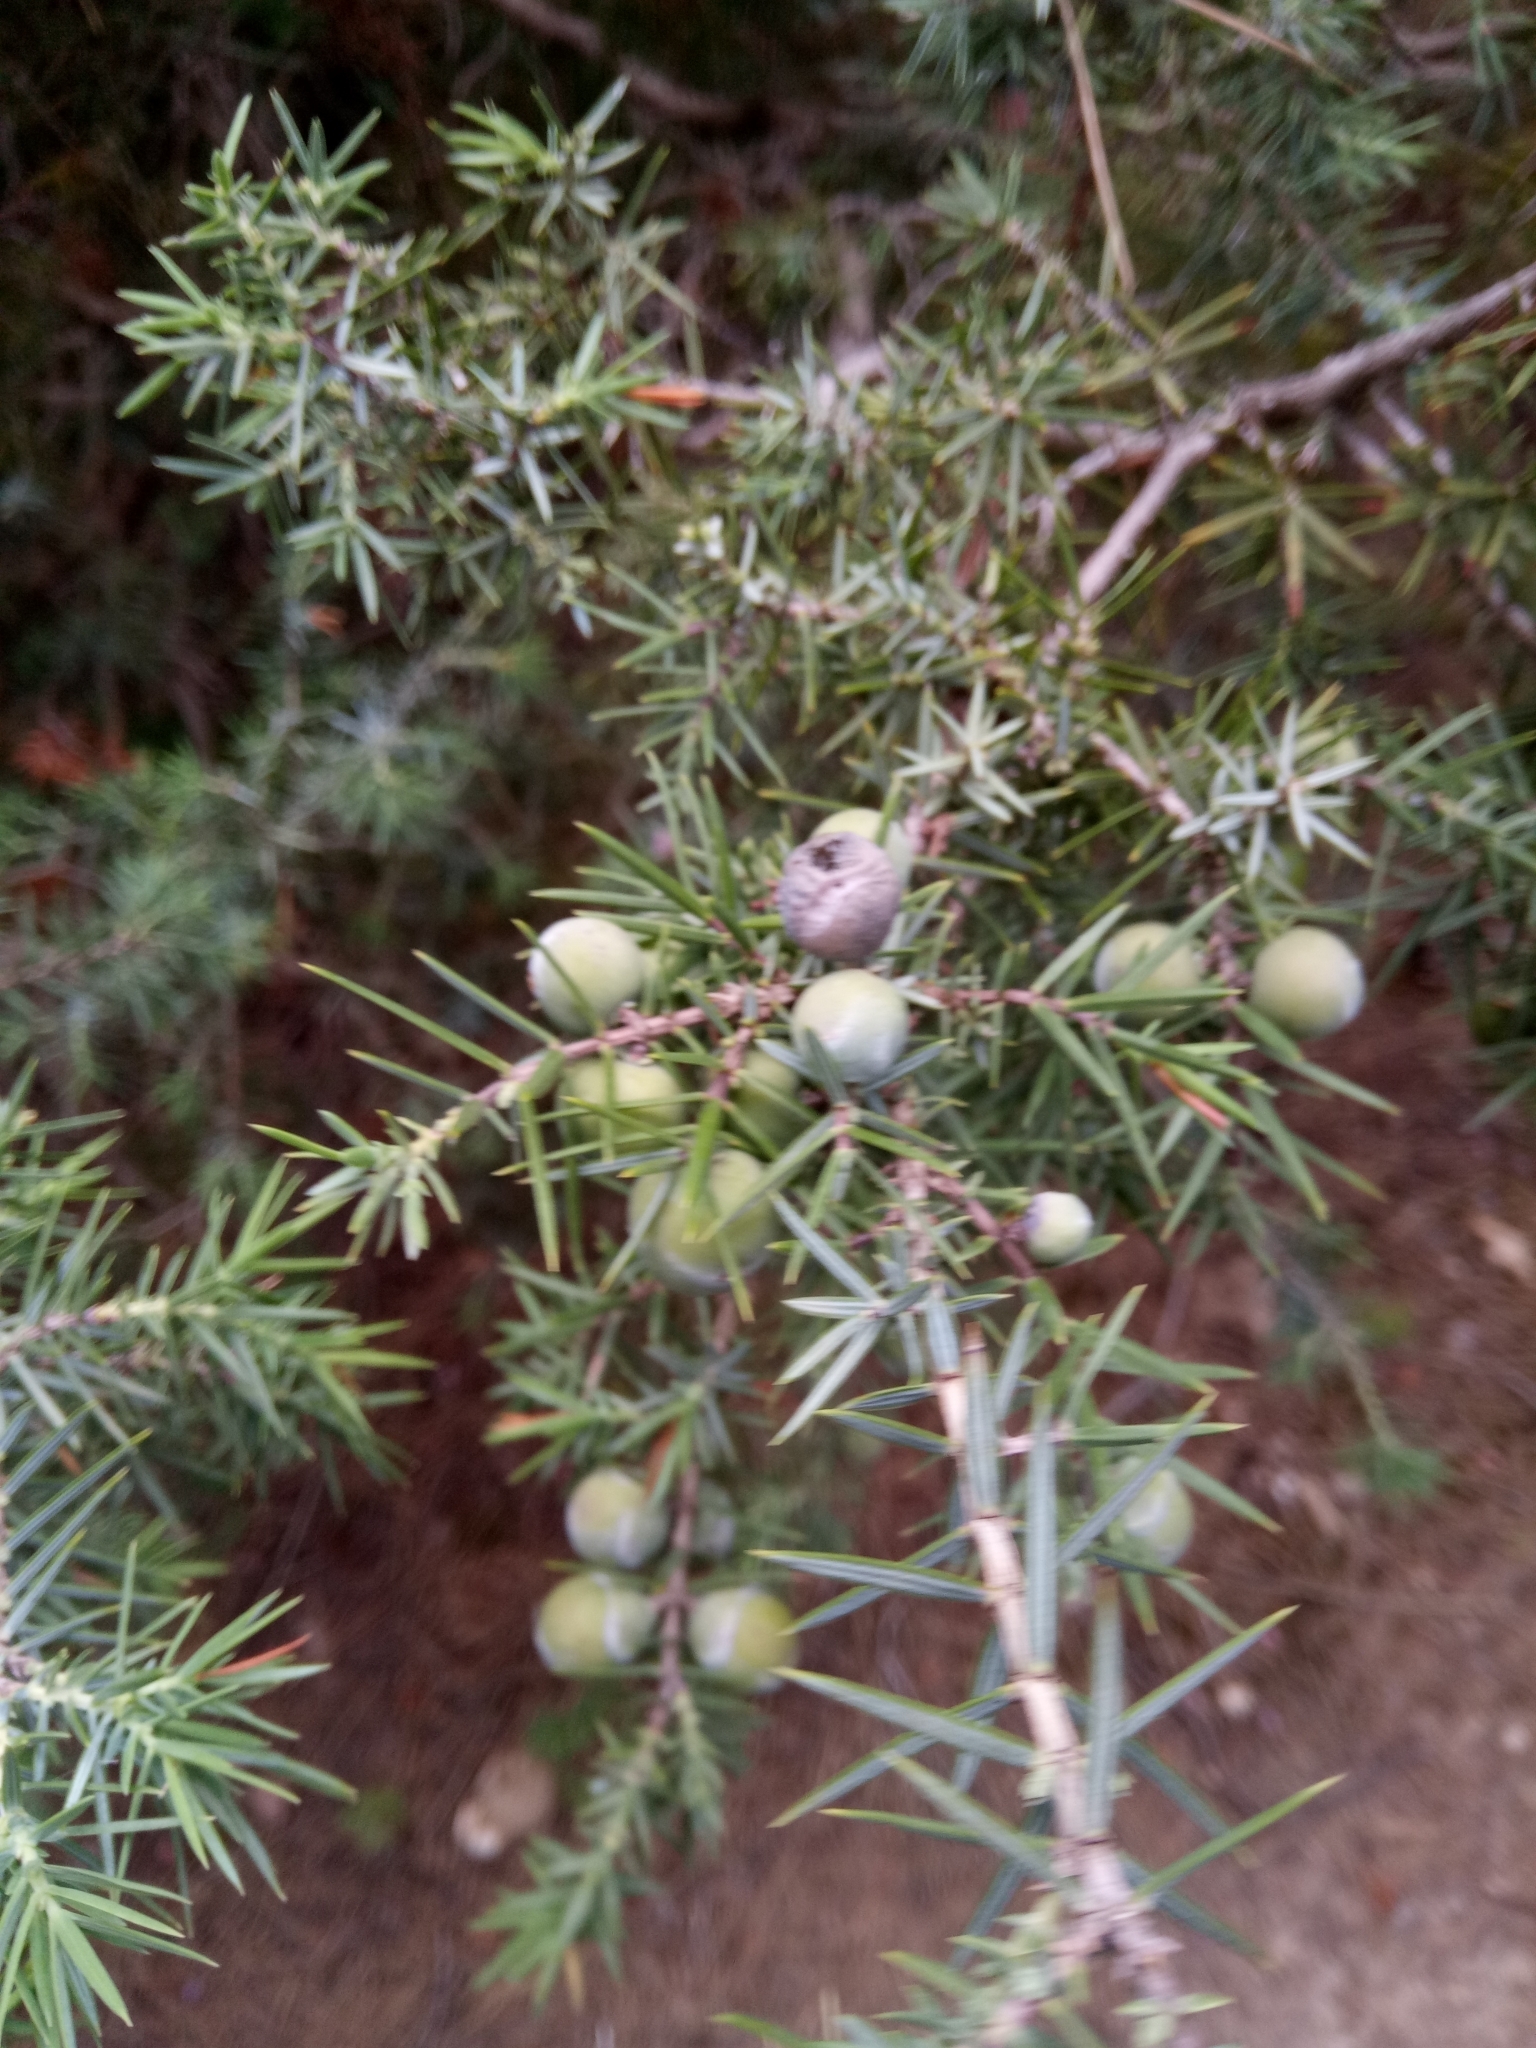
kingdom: Plantae
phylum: Tracheophyta
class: Pinopsida
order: Pinales
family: Cupressaceae
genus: Juniperus
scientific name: Juniperus oxycedrus
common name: Prickly juniper
